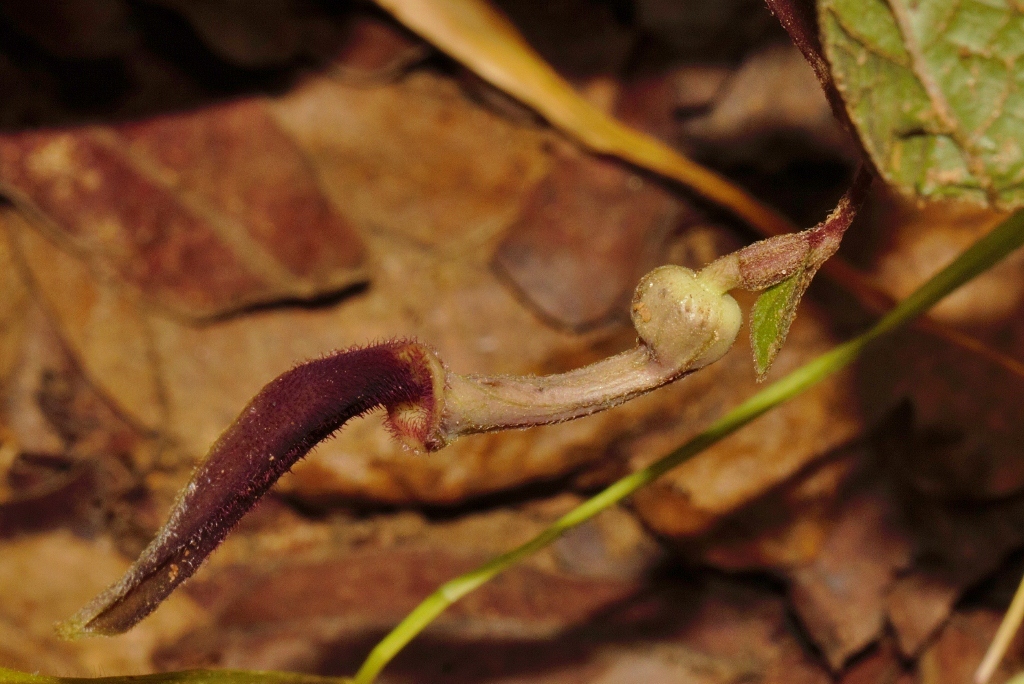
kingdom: Plantae
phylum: Tracheophyta
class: Magnoliopsida
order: Piperales
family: Aristolochiaceae
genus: Aristolochia
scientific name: Aristolochia heppii
